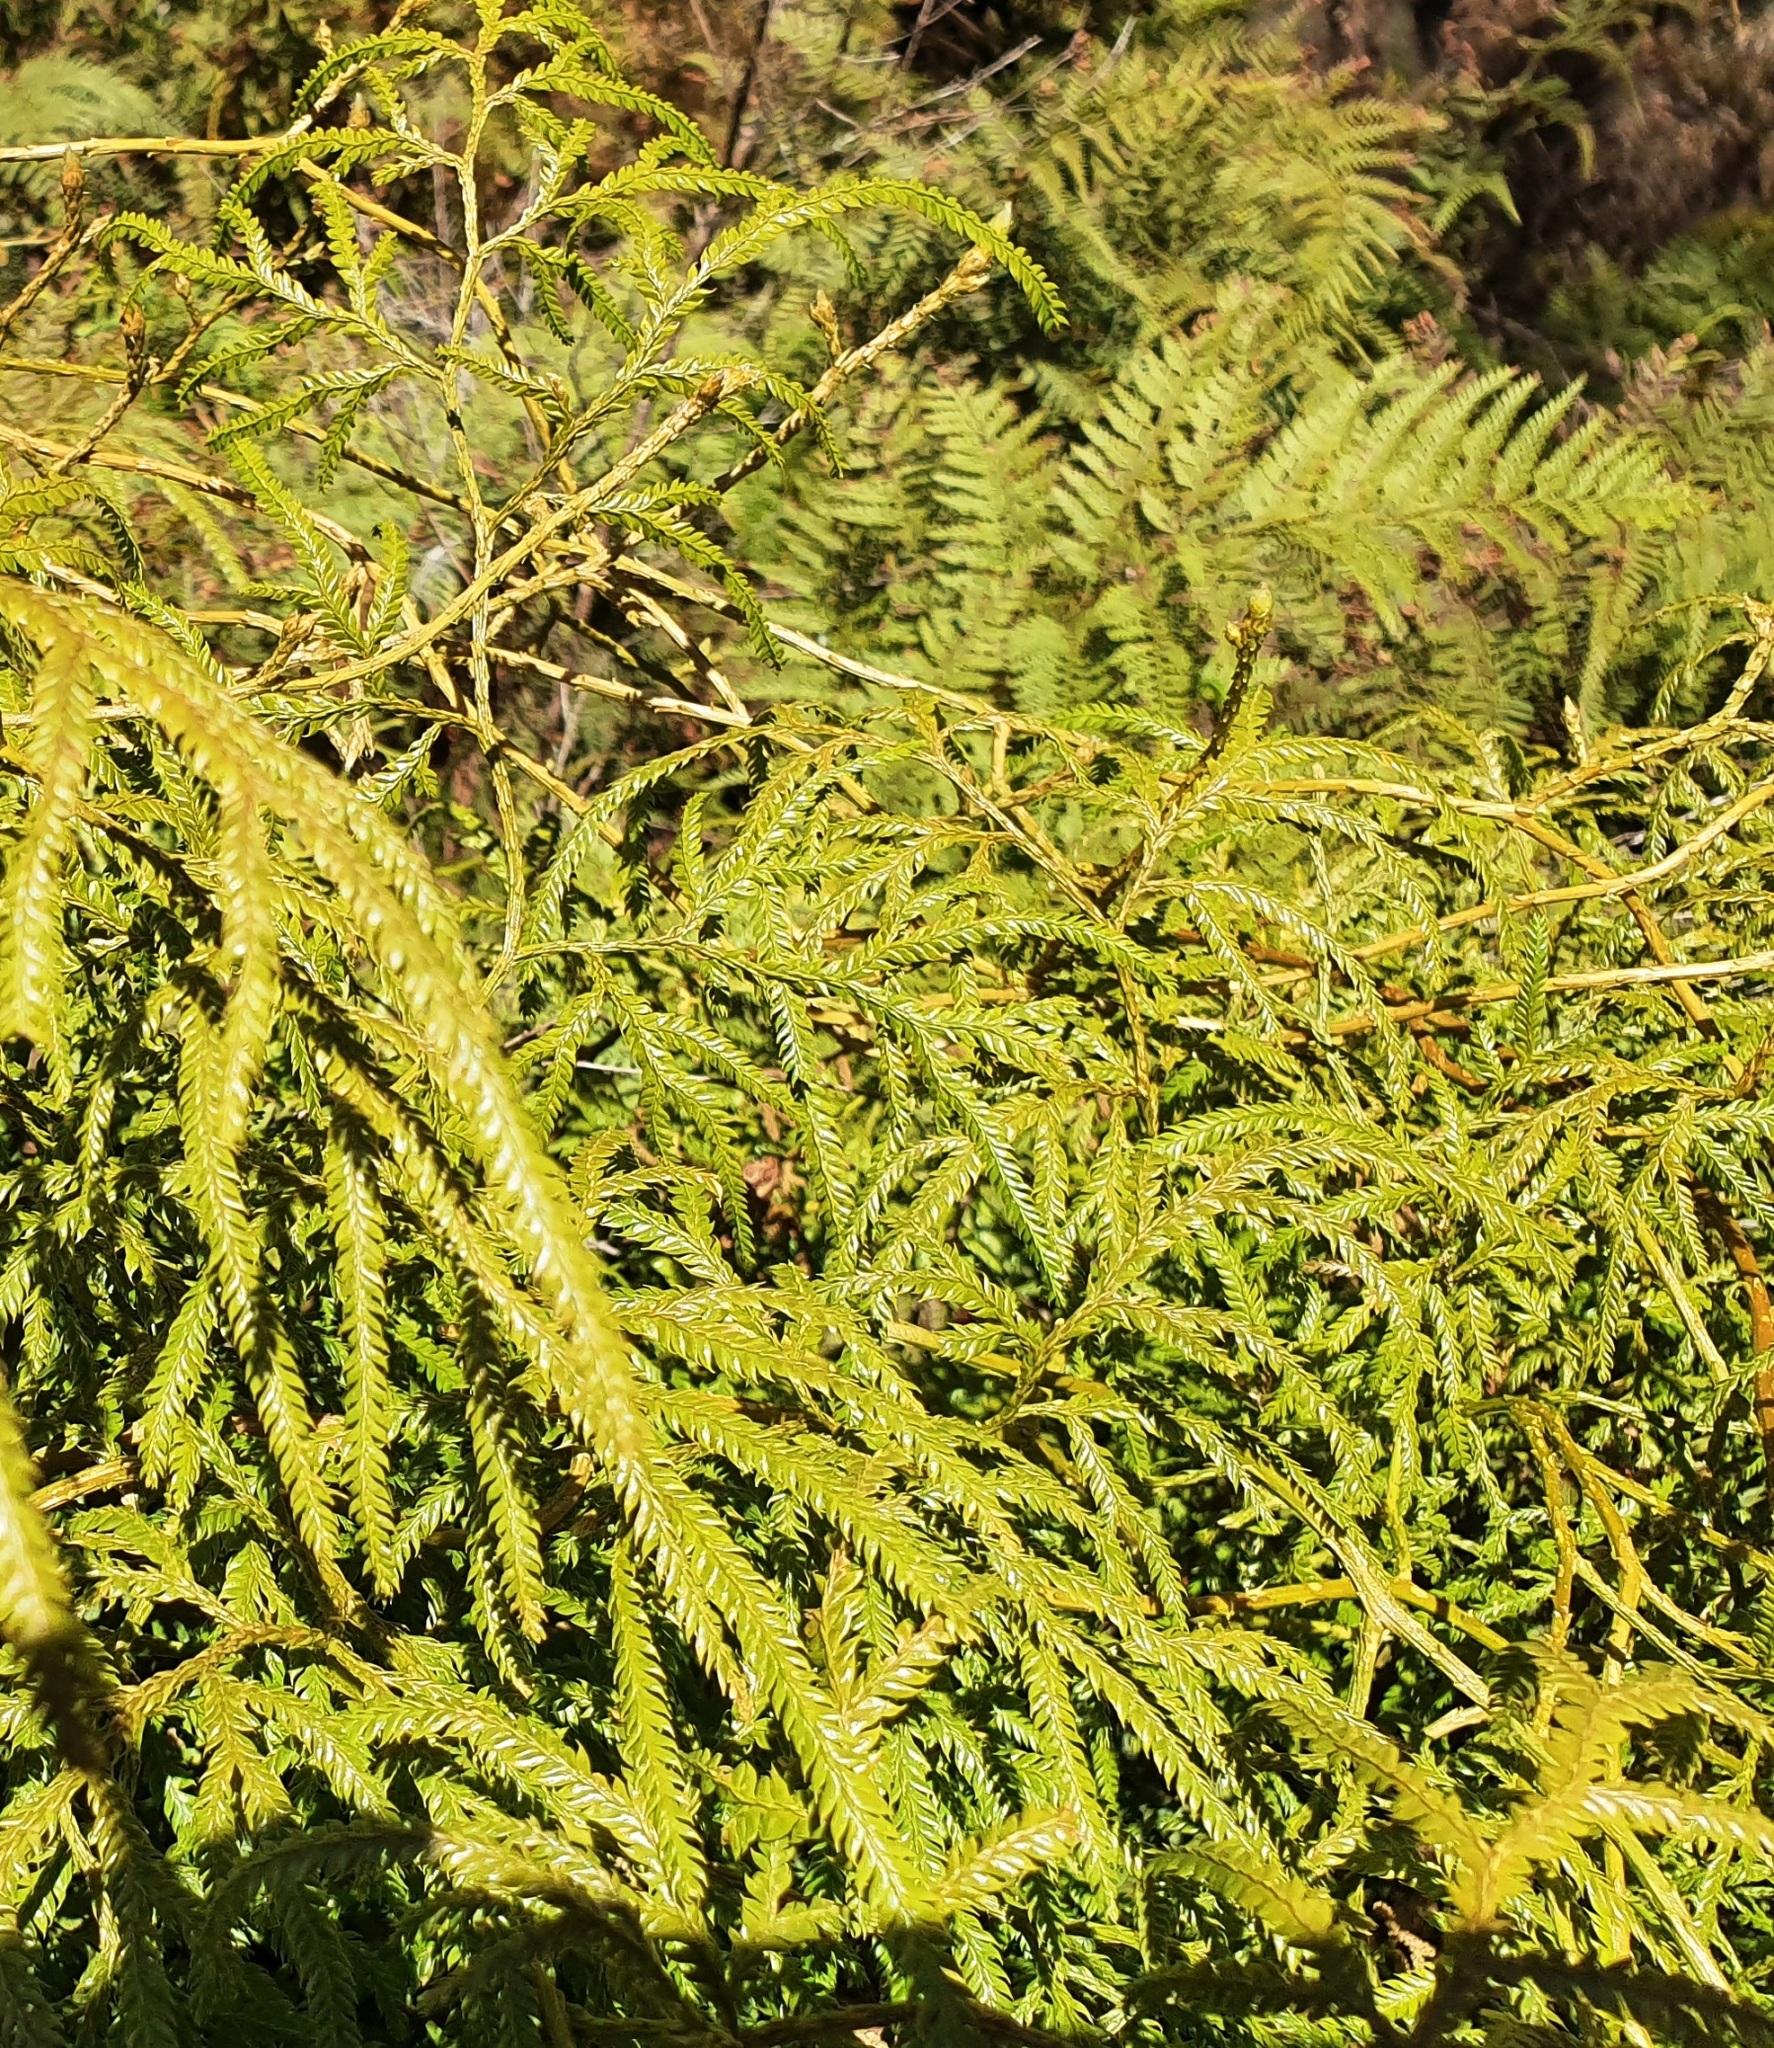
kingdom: Plantae
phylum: Tracheophyta
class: Lycopodiopsida
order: Lycopodiales
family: Lycopodiaceae
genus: Lycopodium
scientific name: Lycopodium volubile
